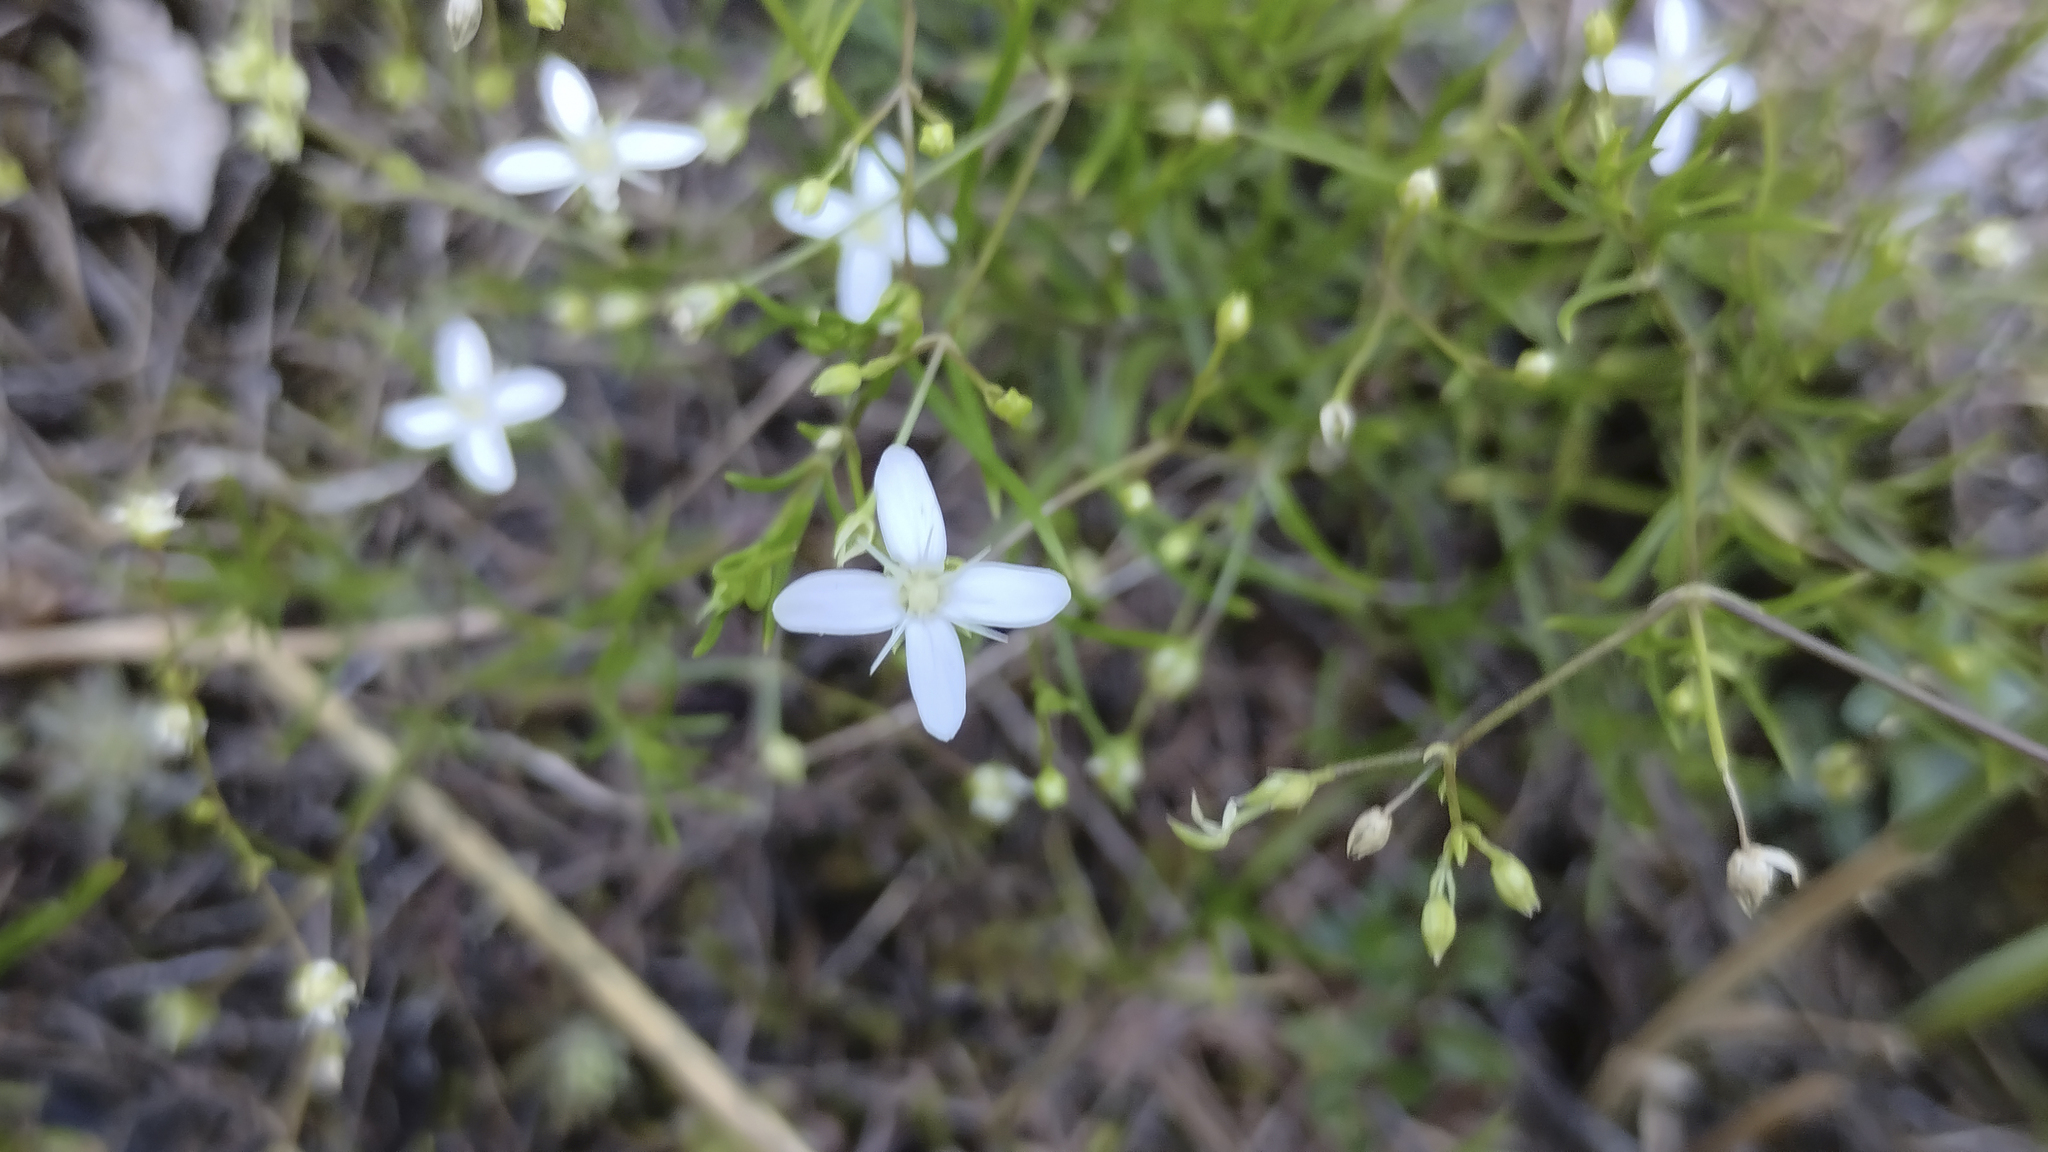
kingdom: Plantae
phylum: Tracheophyta
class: Magnoliopsida
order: Caryophyllales
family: Caryophyllaceae
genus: Moehringia
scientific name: Moehringia muscosa
